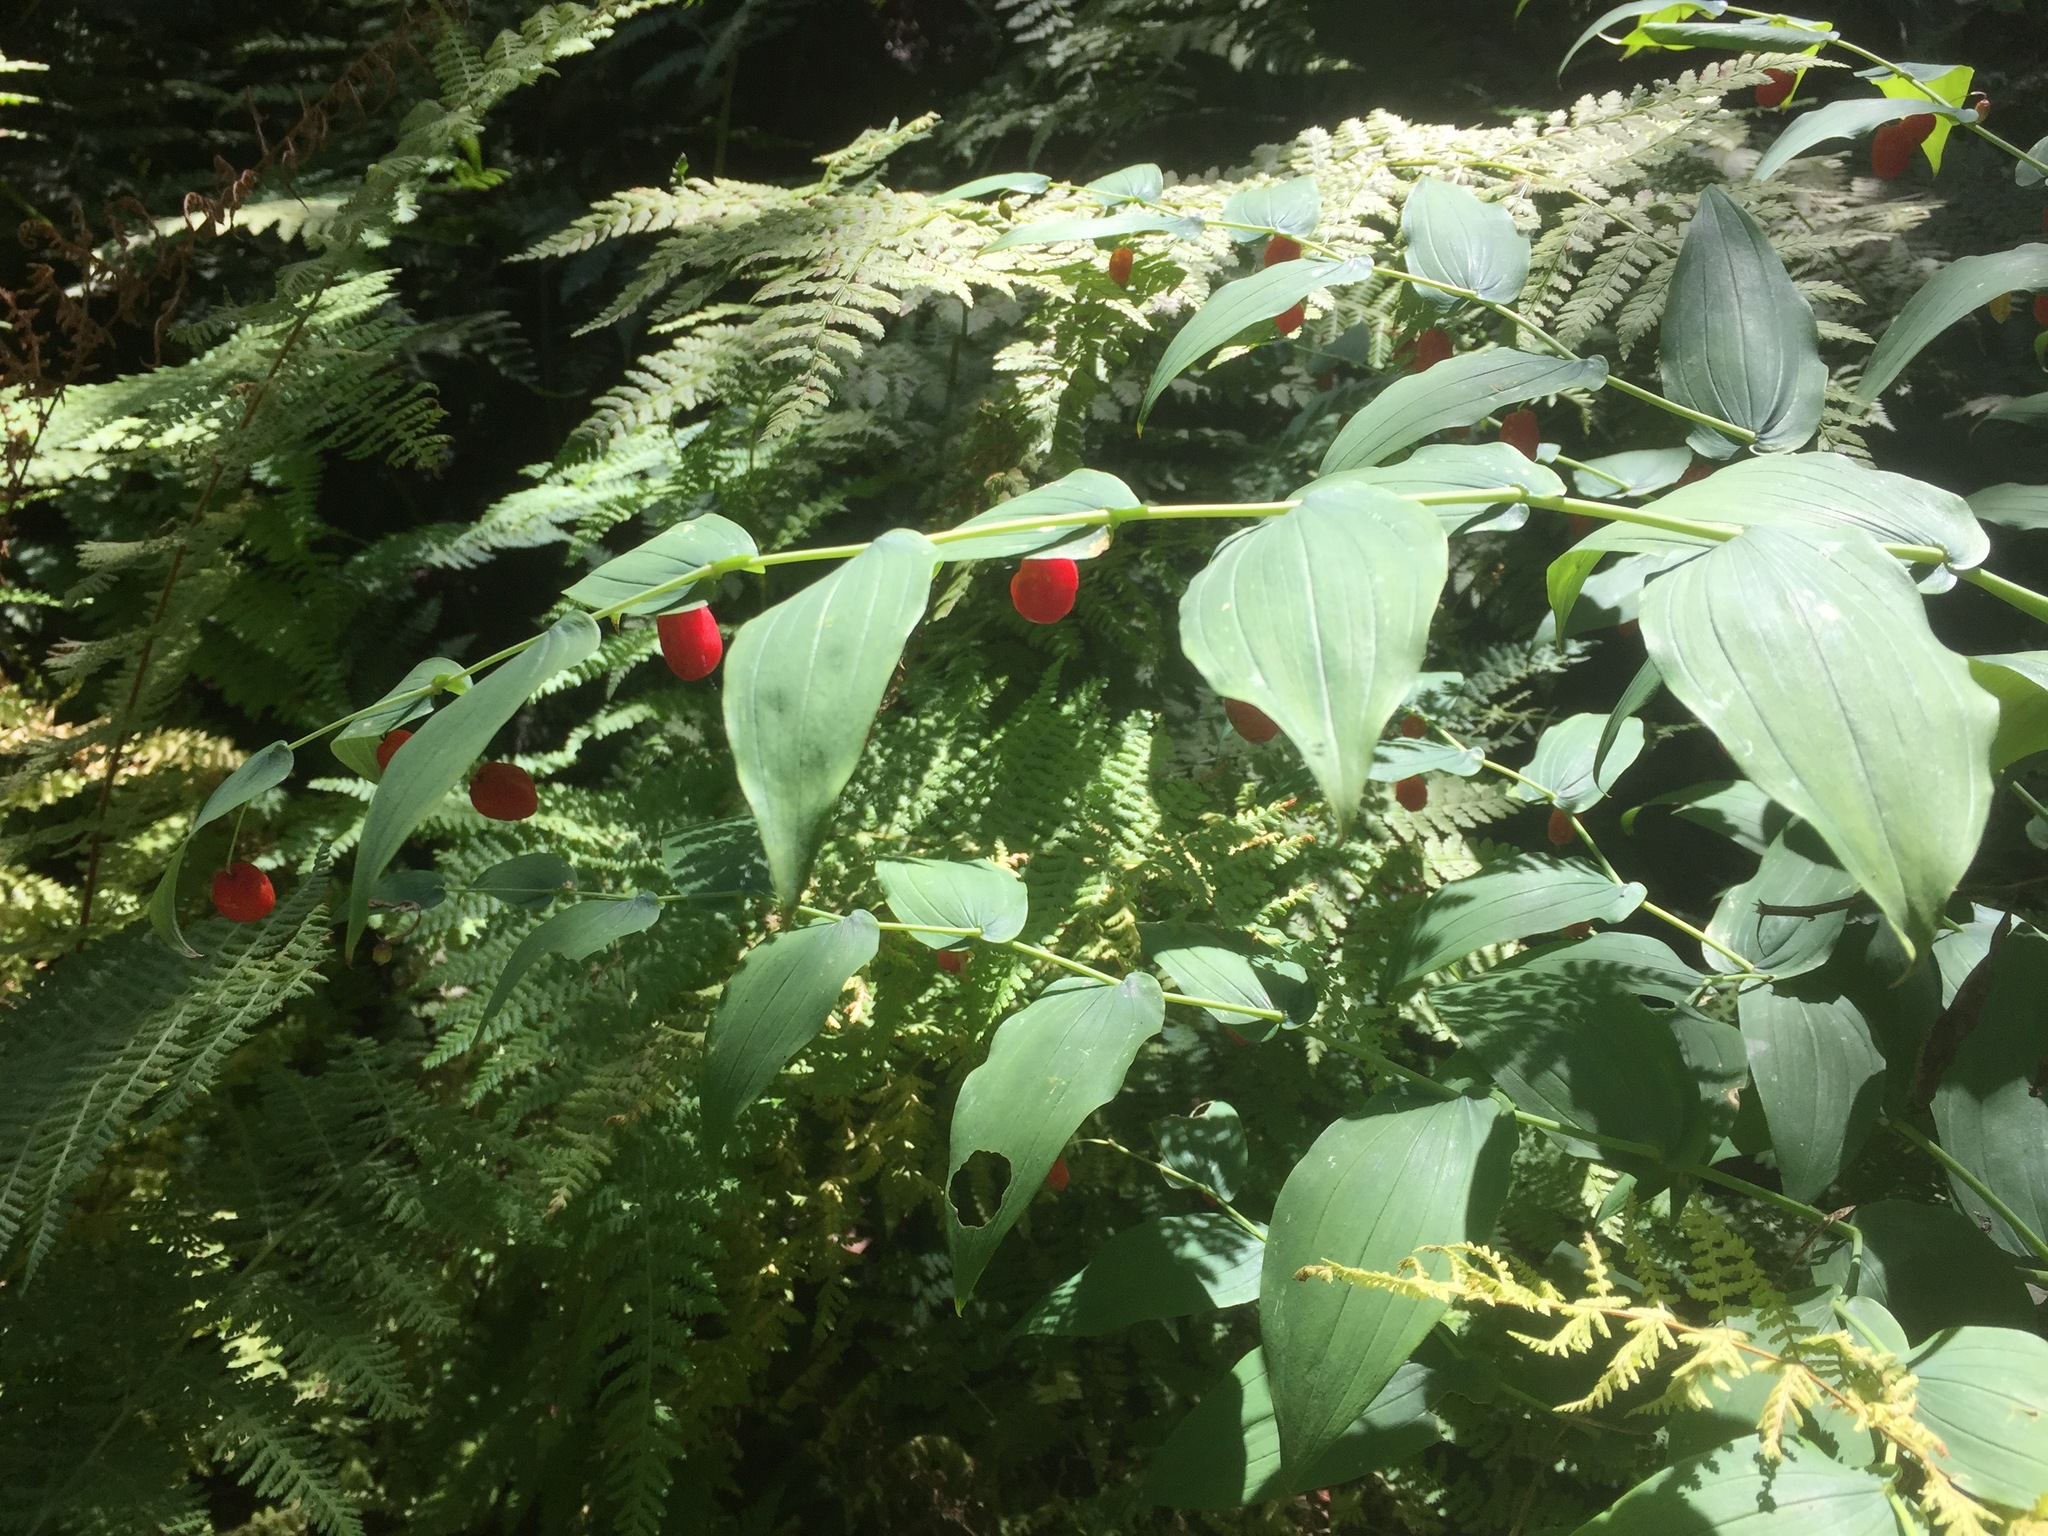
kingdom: Plantae
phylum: Tracheophyta
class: Liliopsida
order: Liliales
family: Liliaceae
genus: Streptopus
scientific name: Streptopus amplexifolius
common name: Clasp twisted stalk
